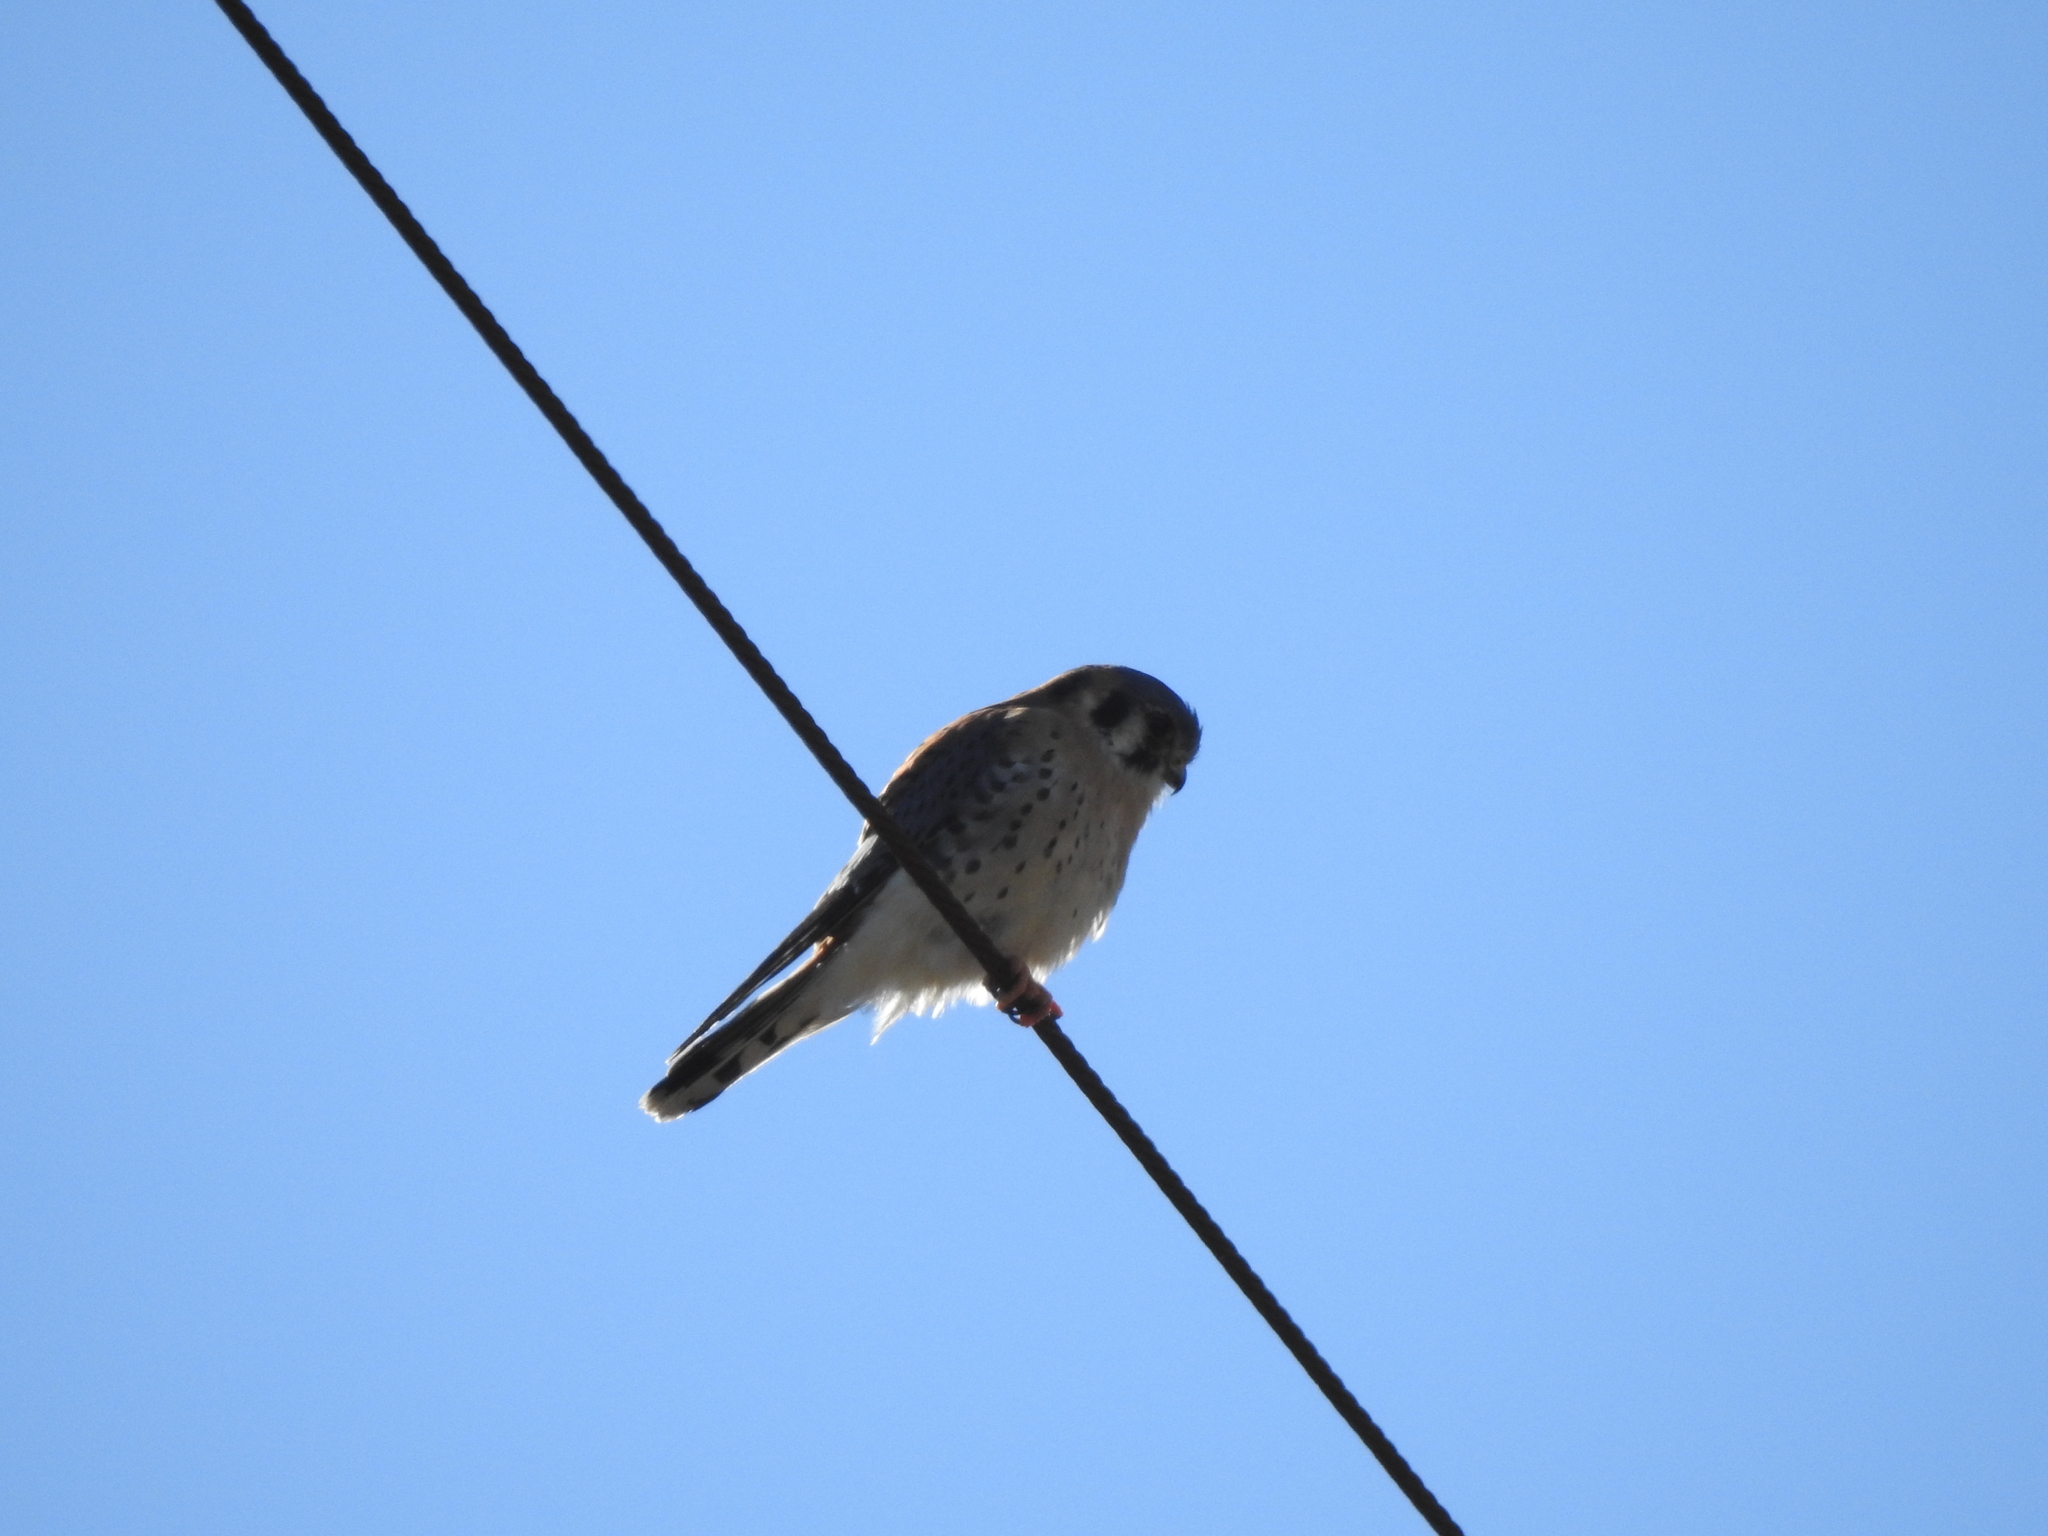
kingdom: Animalia
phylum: Chordata
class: Aves
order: Falconiformes
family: Falconidae
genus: Falco
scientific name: Falco sparverius
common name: American kestrel
